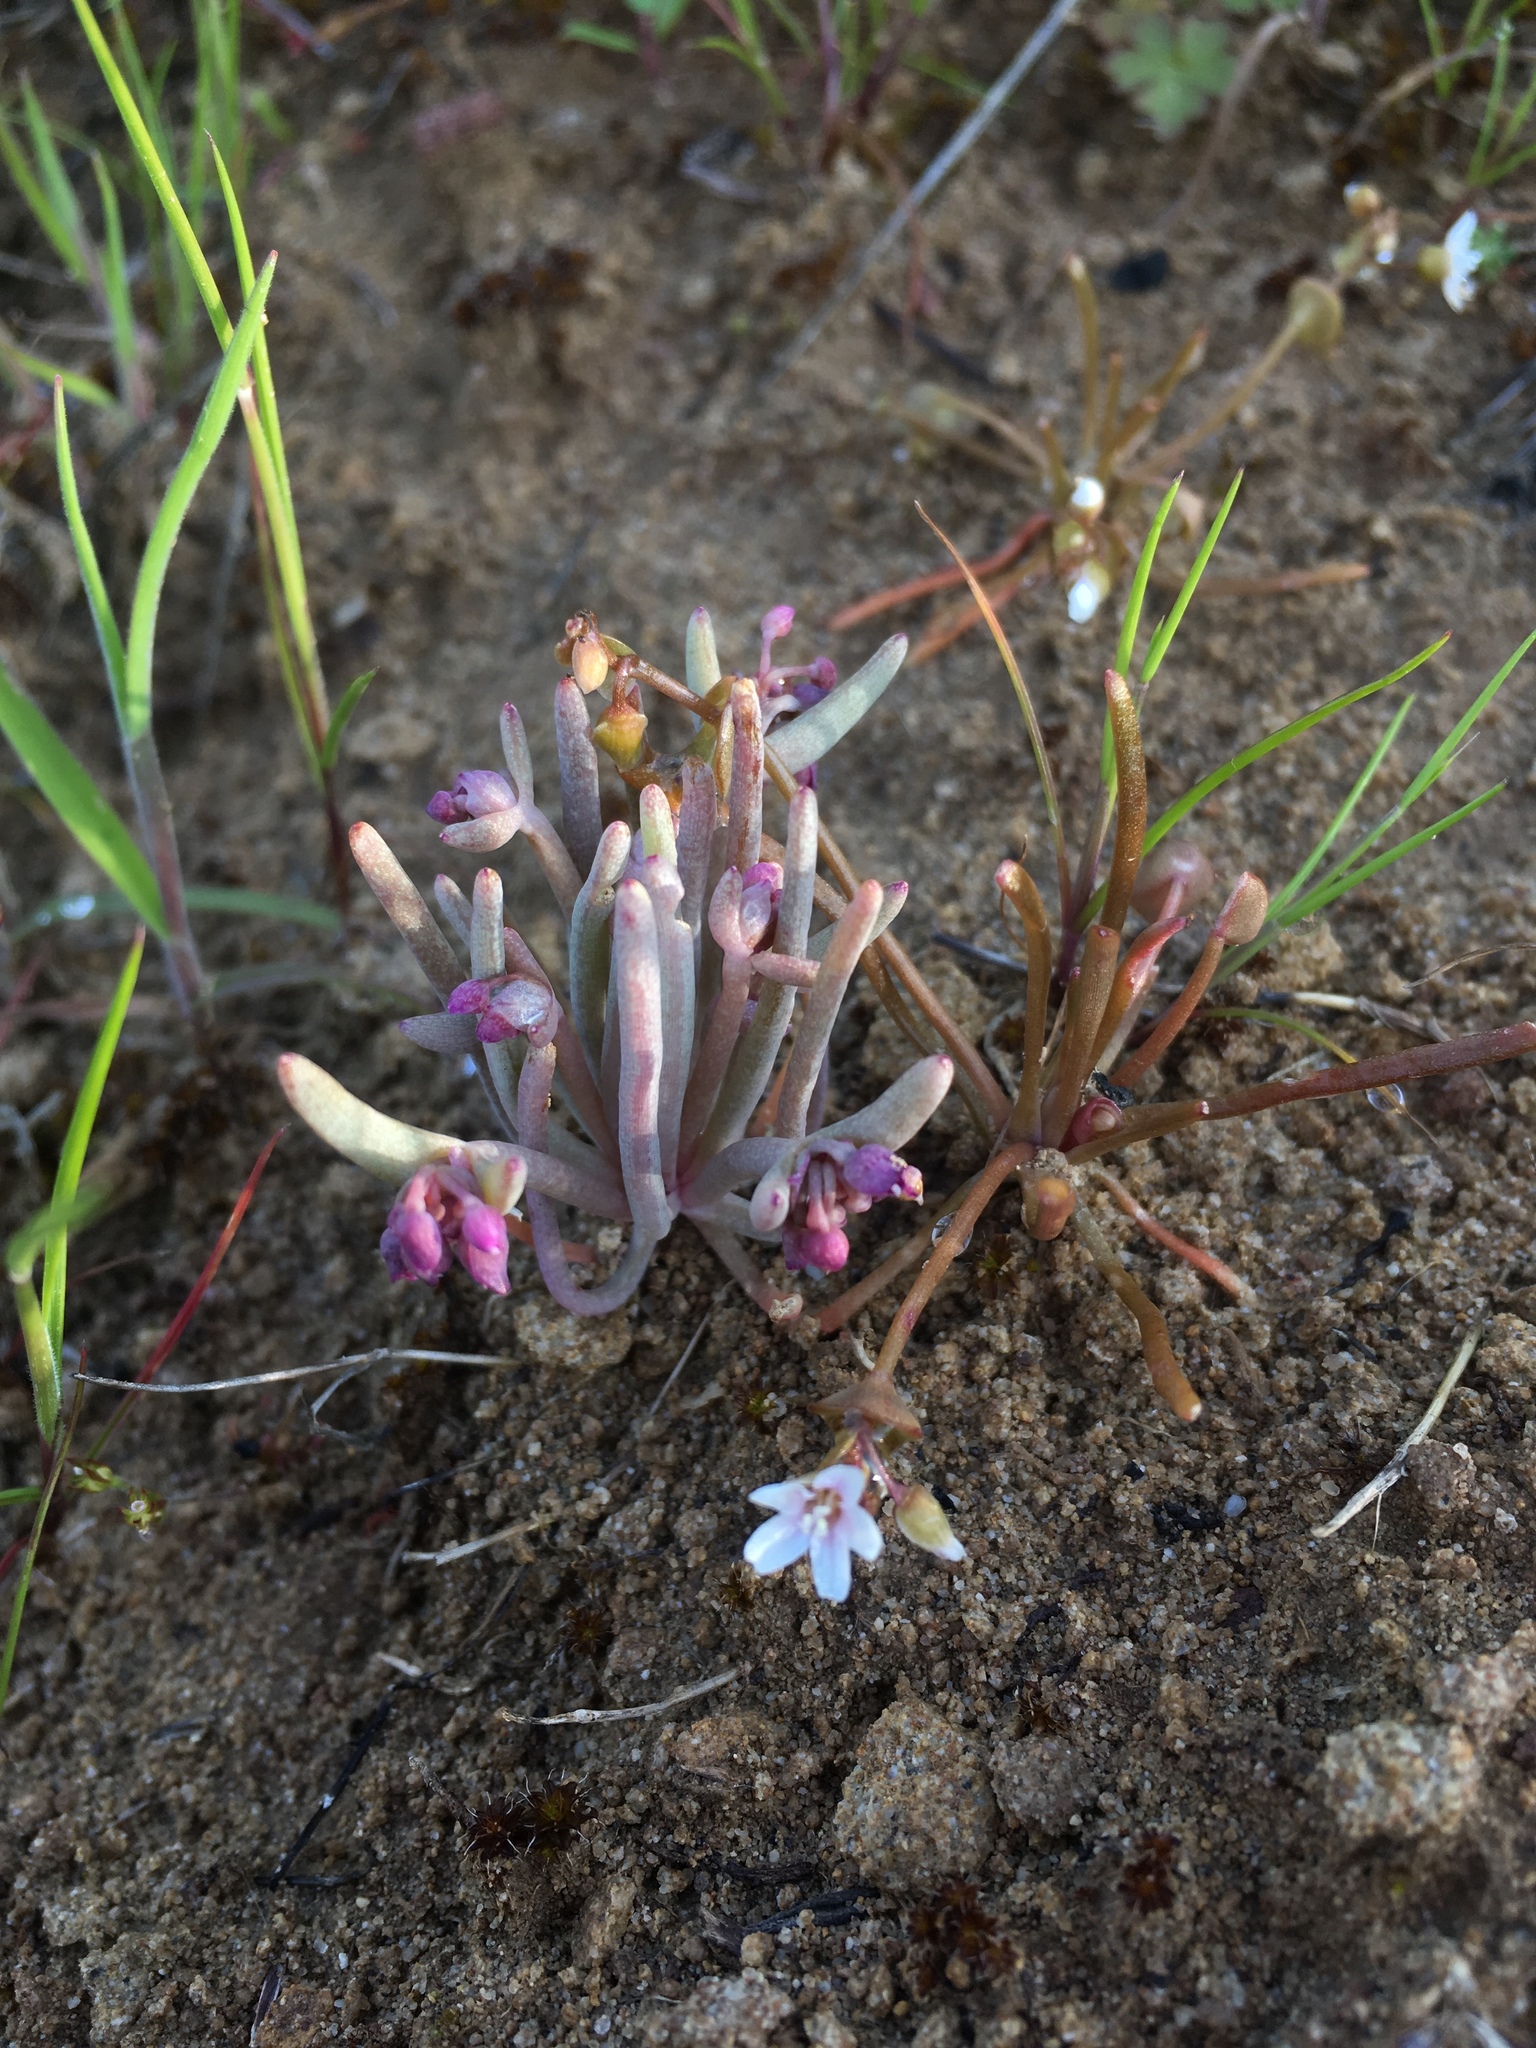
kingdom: Plantae
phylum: Tracheophyta
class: Magnoliopsida
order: Caryophyllales
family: Montiaceae
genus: Claytonia
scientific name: Claytonia exigua
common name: Pale spring beauty
